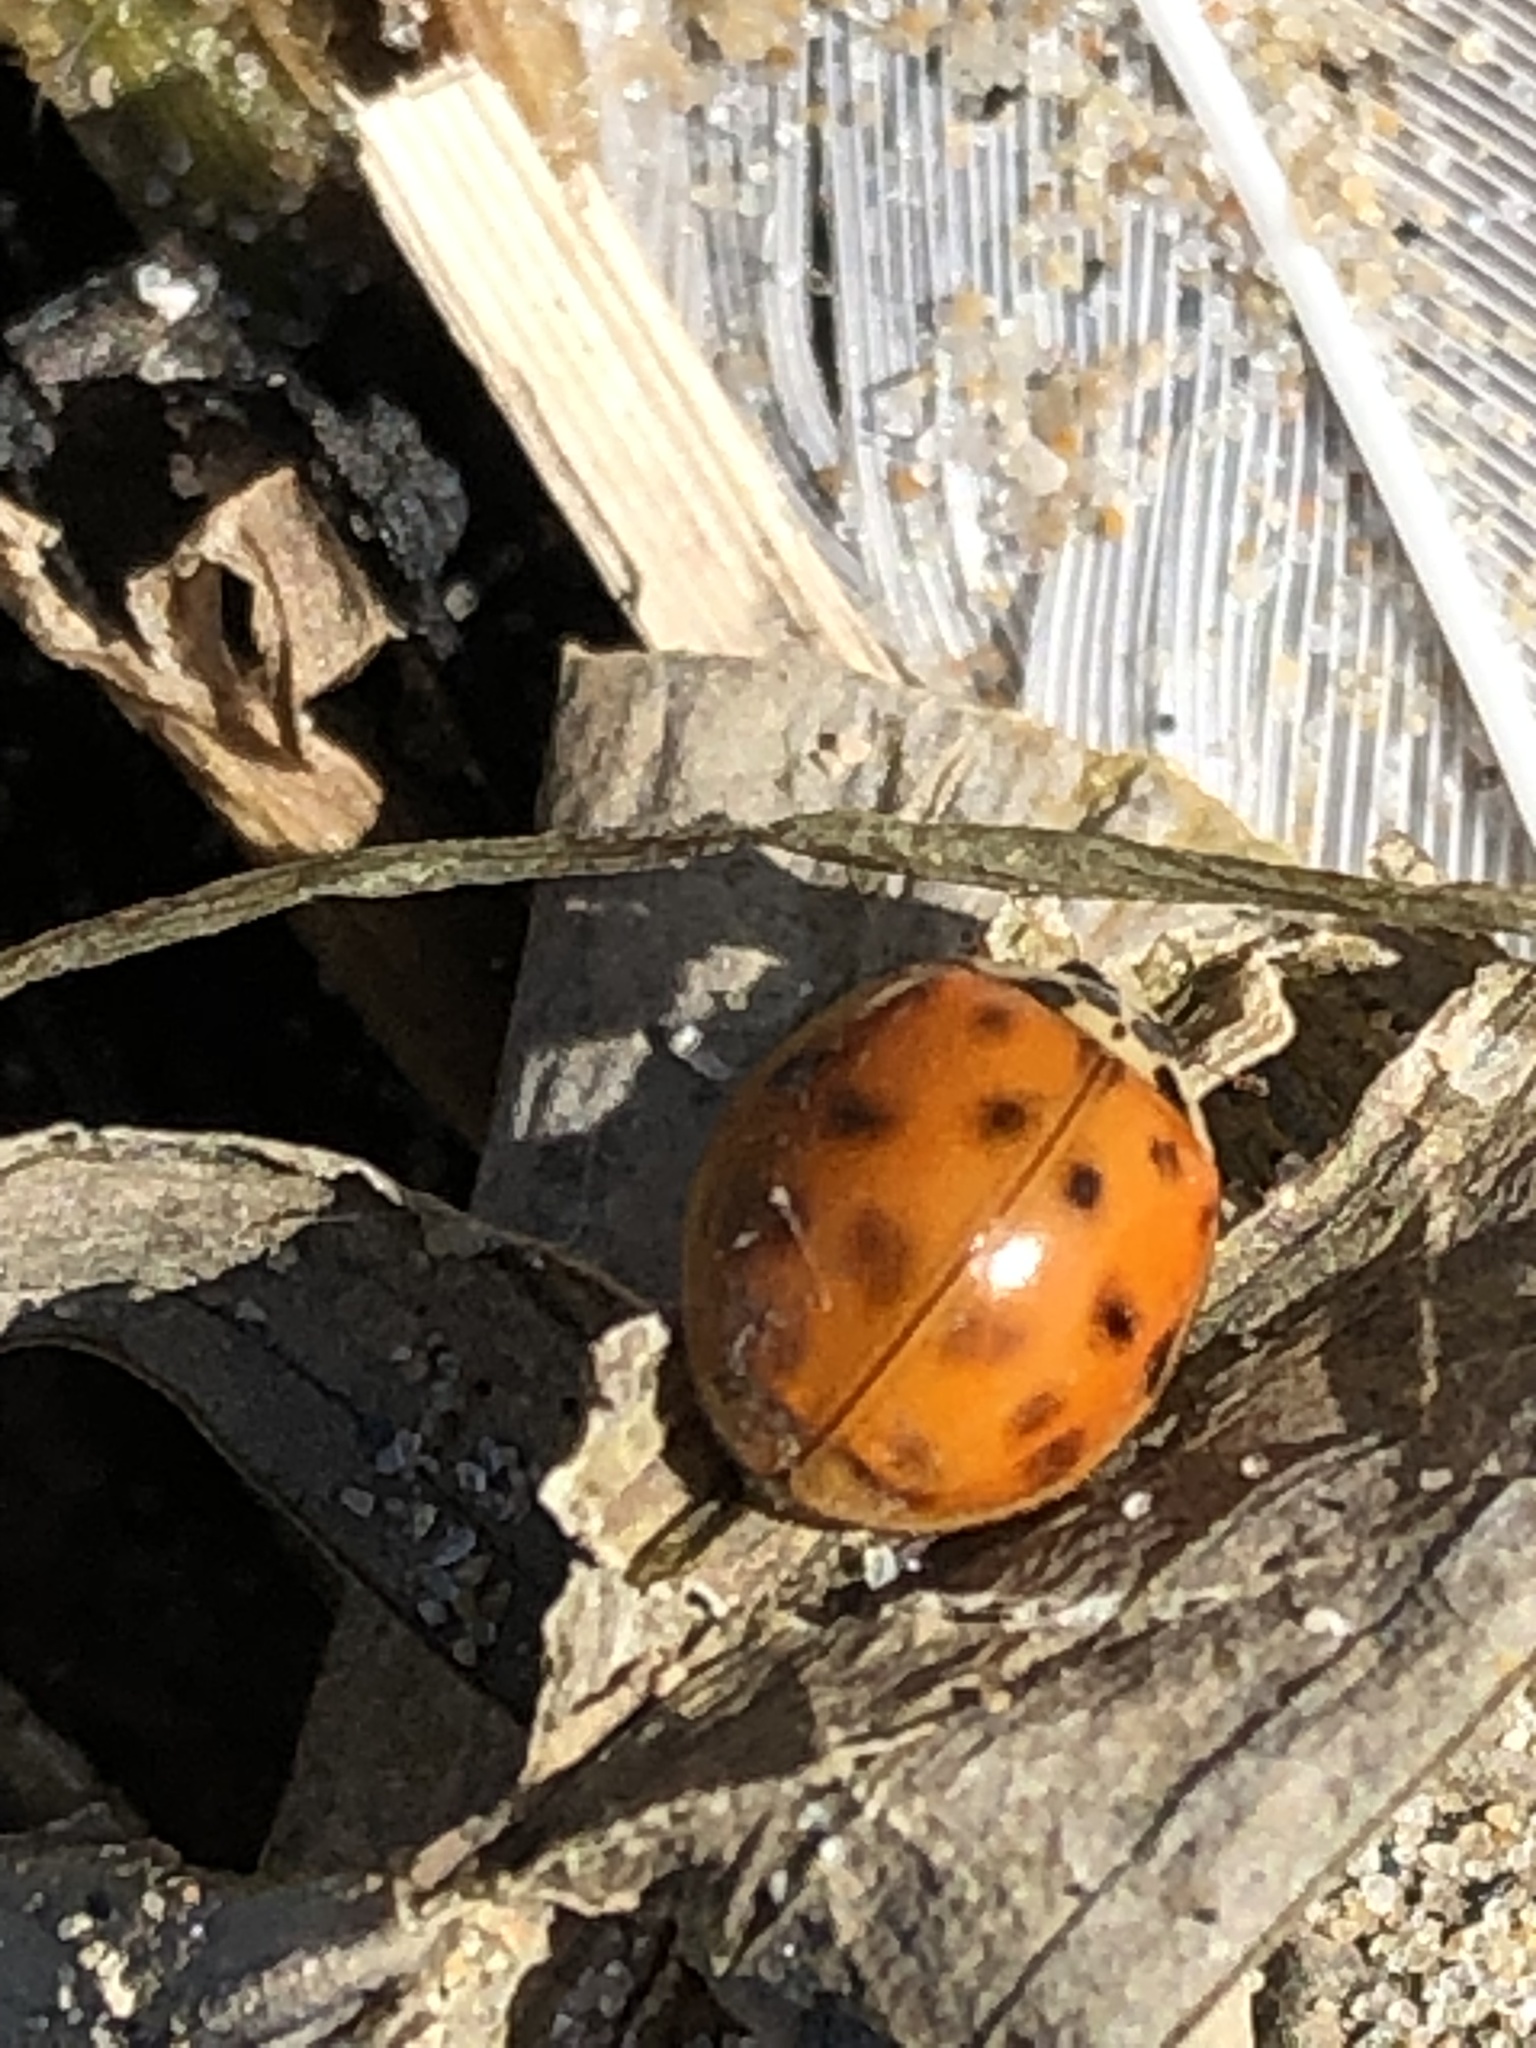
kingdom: Animalia
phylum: Arthropoda
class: Insecta
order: Coleoptera
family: Coccinellidae
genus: Harmonia
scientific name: Harmonia axyridis
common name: Harlequin ladybird
